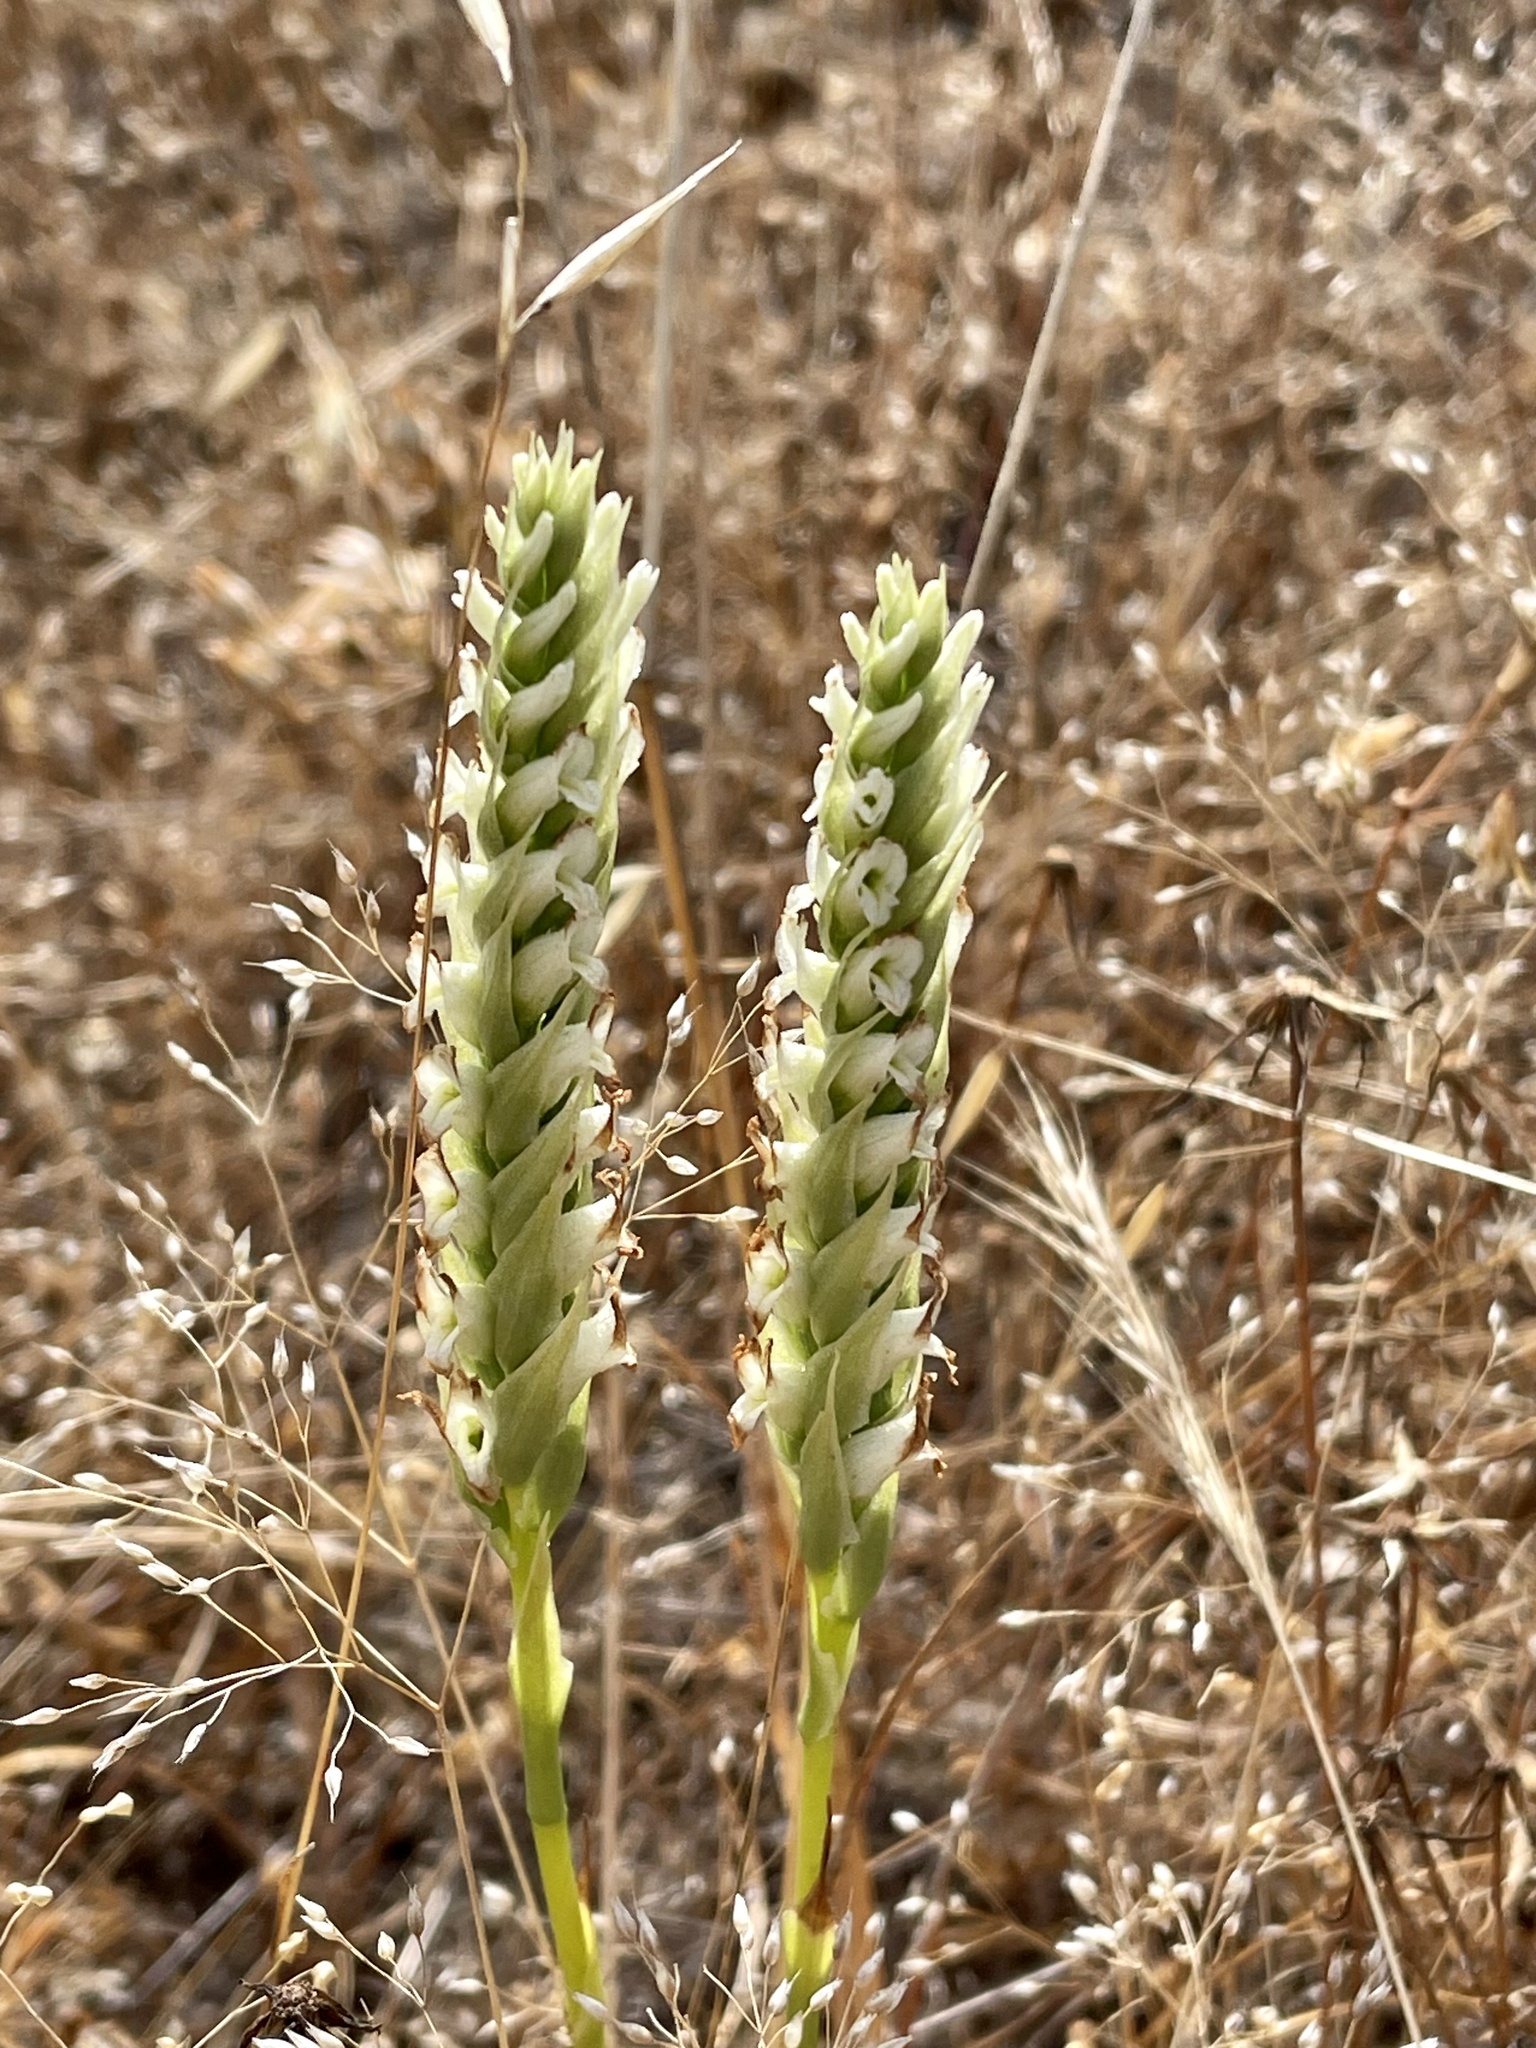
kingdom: Plantae
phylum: Tracheophyta
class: Liliopsida
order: Asparagales
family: Orchidaceae
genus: Spiranthes
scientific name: Spiranthes romanzoffiana
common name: Irish lady's-tresses
